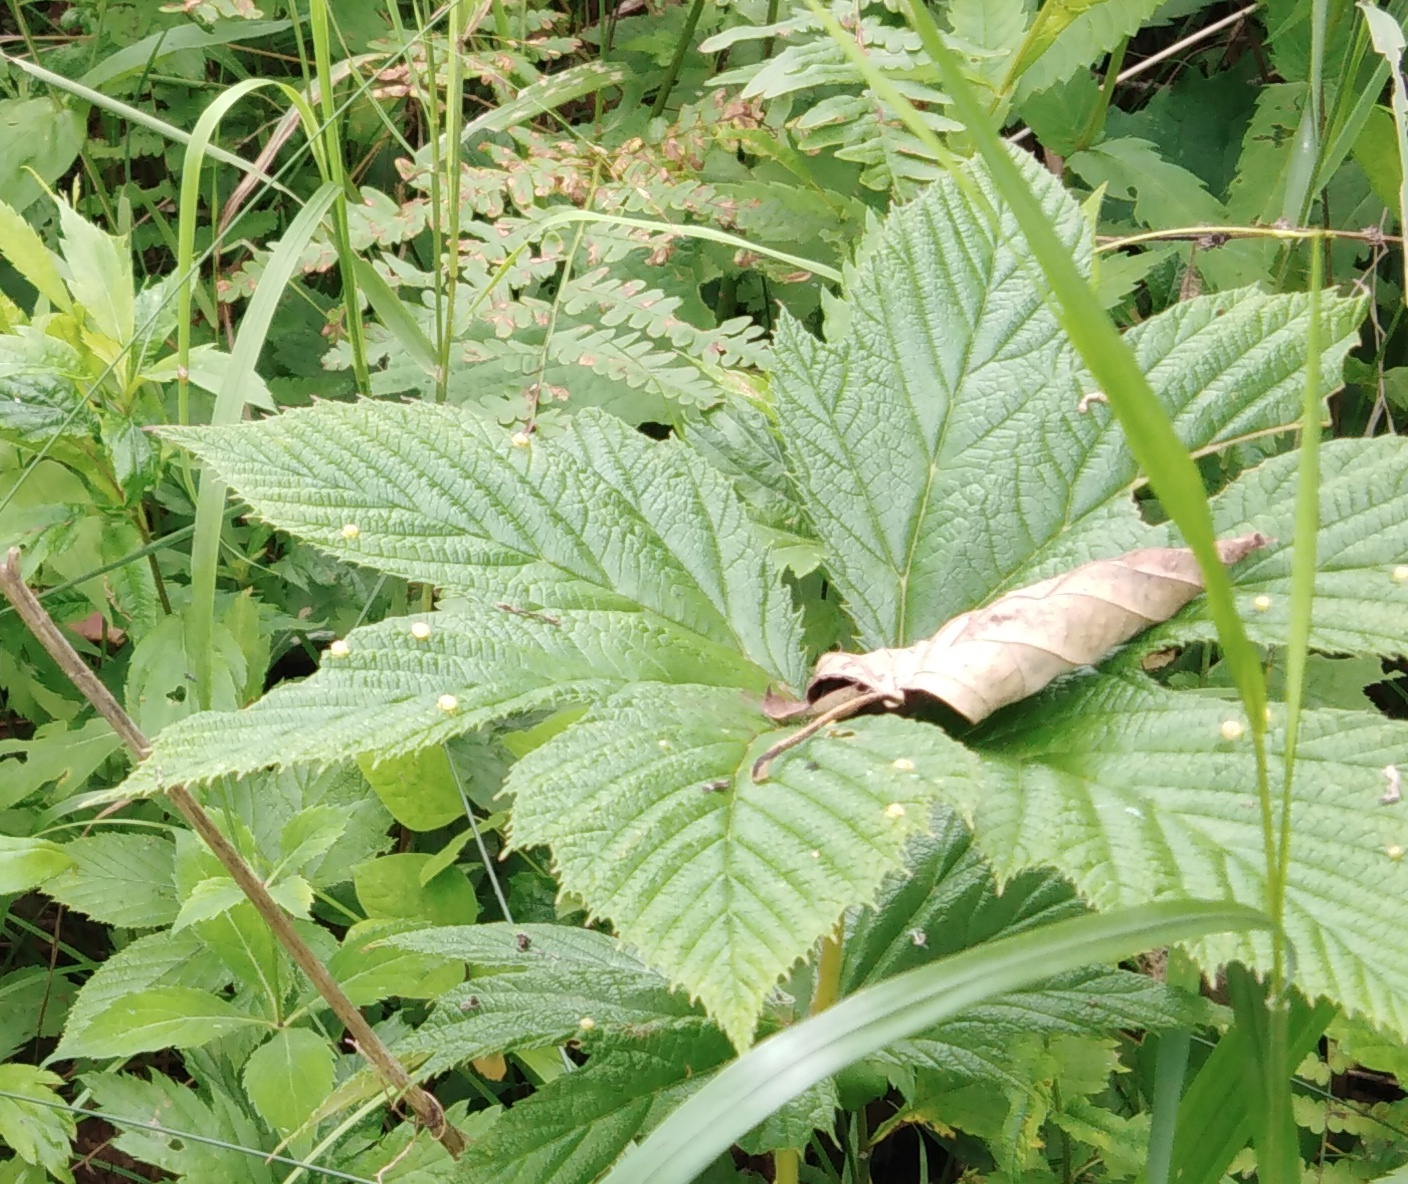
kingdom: Plantae
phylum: Tracheophyta
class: Magnoliopsida
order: Rosales
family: Rosaceae
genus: Filipendula
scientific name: Filipendula digitata
